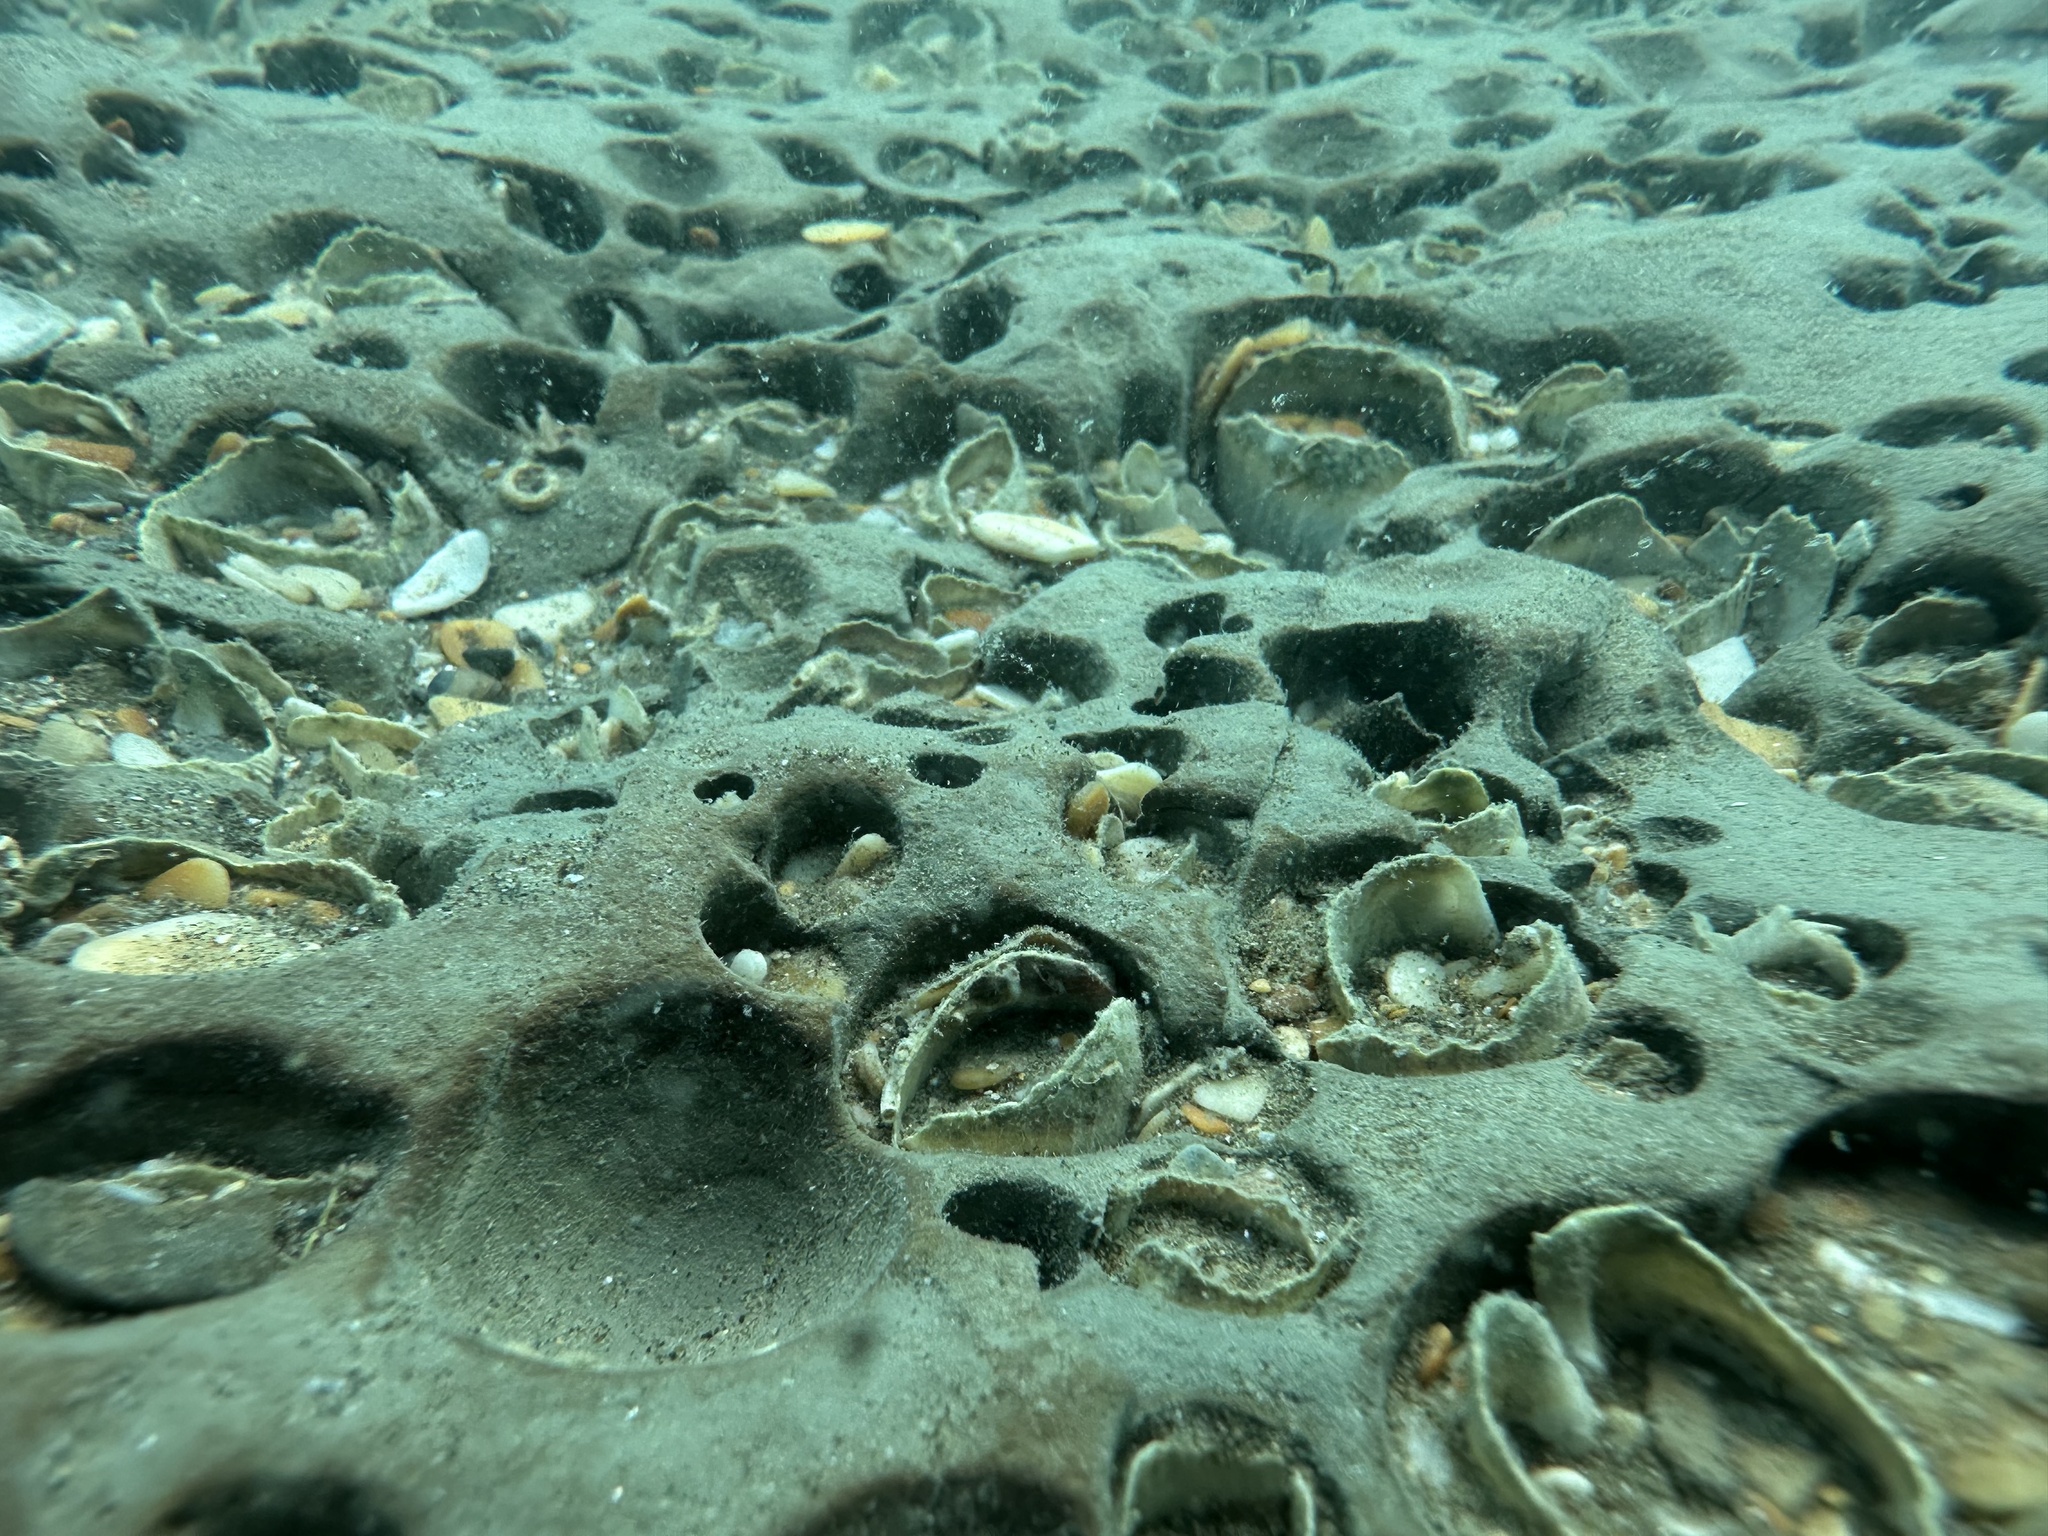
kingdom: Animalia
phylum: Mollusca
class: Bivalvia
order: Myida
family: Pholadidae
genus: Barnea
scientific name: Barnea similis
